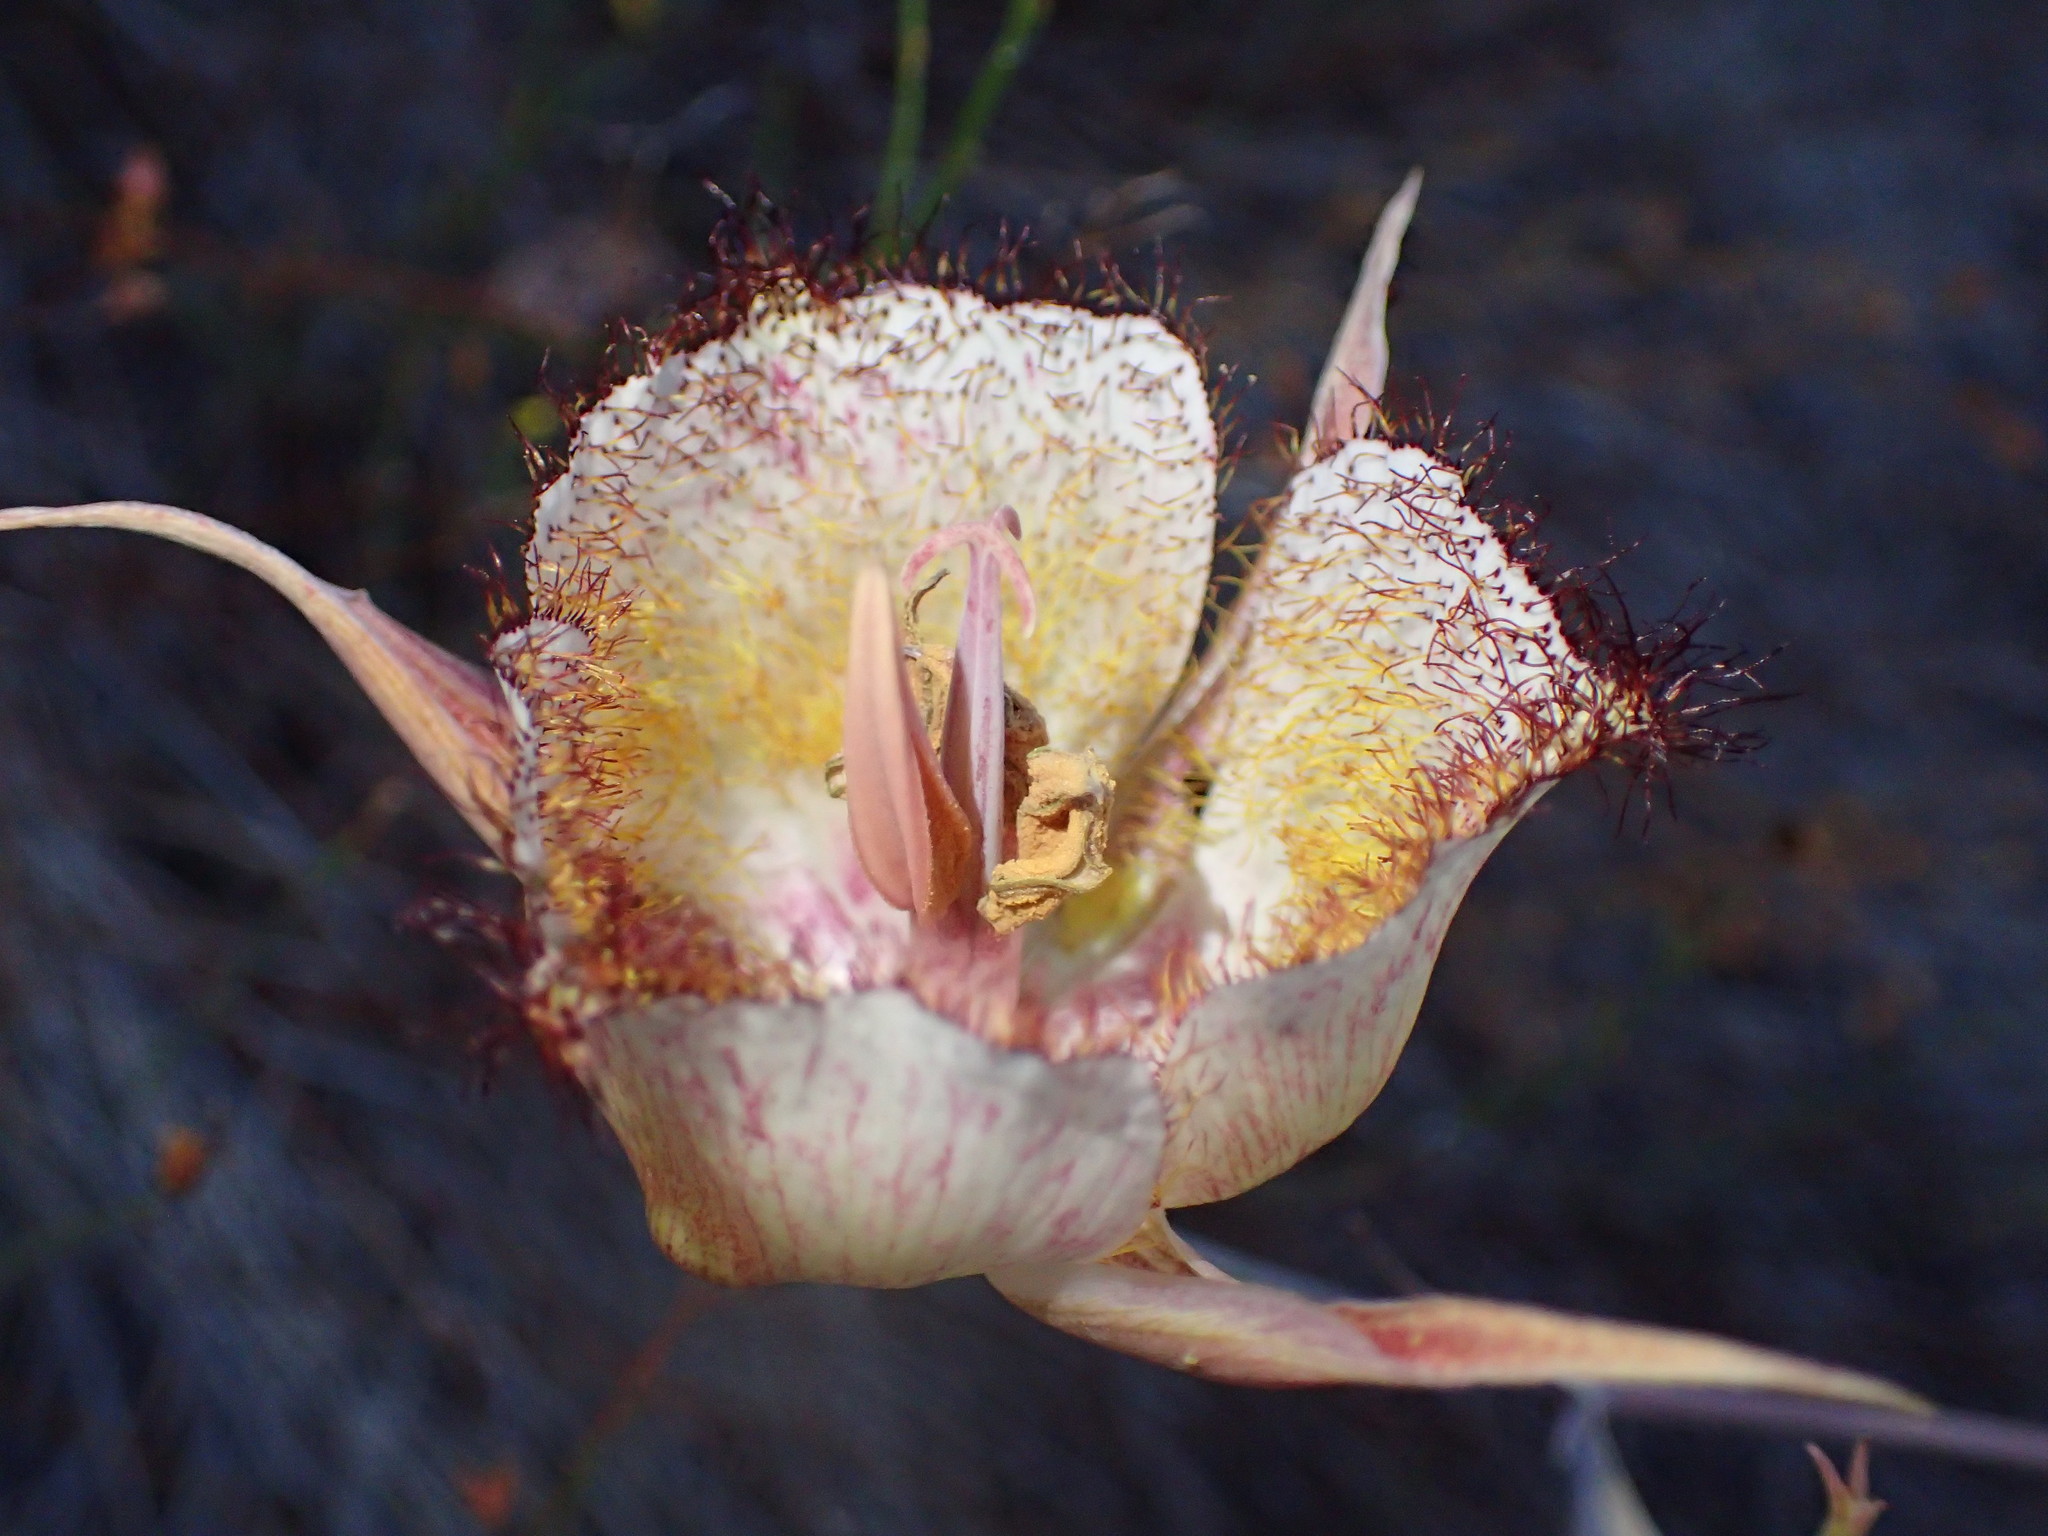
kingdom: Plantae
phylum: Tracheophyta
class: Liliopsida
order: Liliales
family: Liliaceae
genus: Calochortus
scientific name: Calochortus fimbriatus
